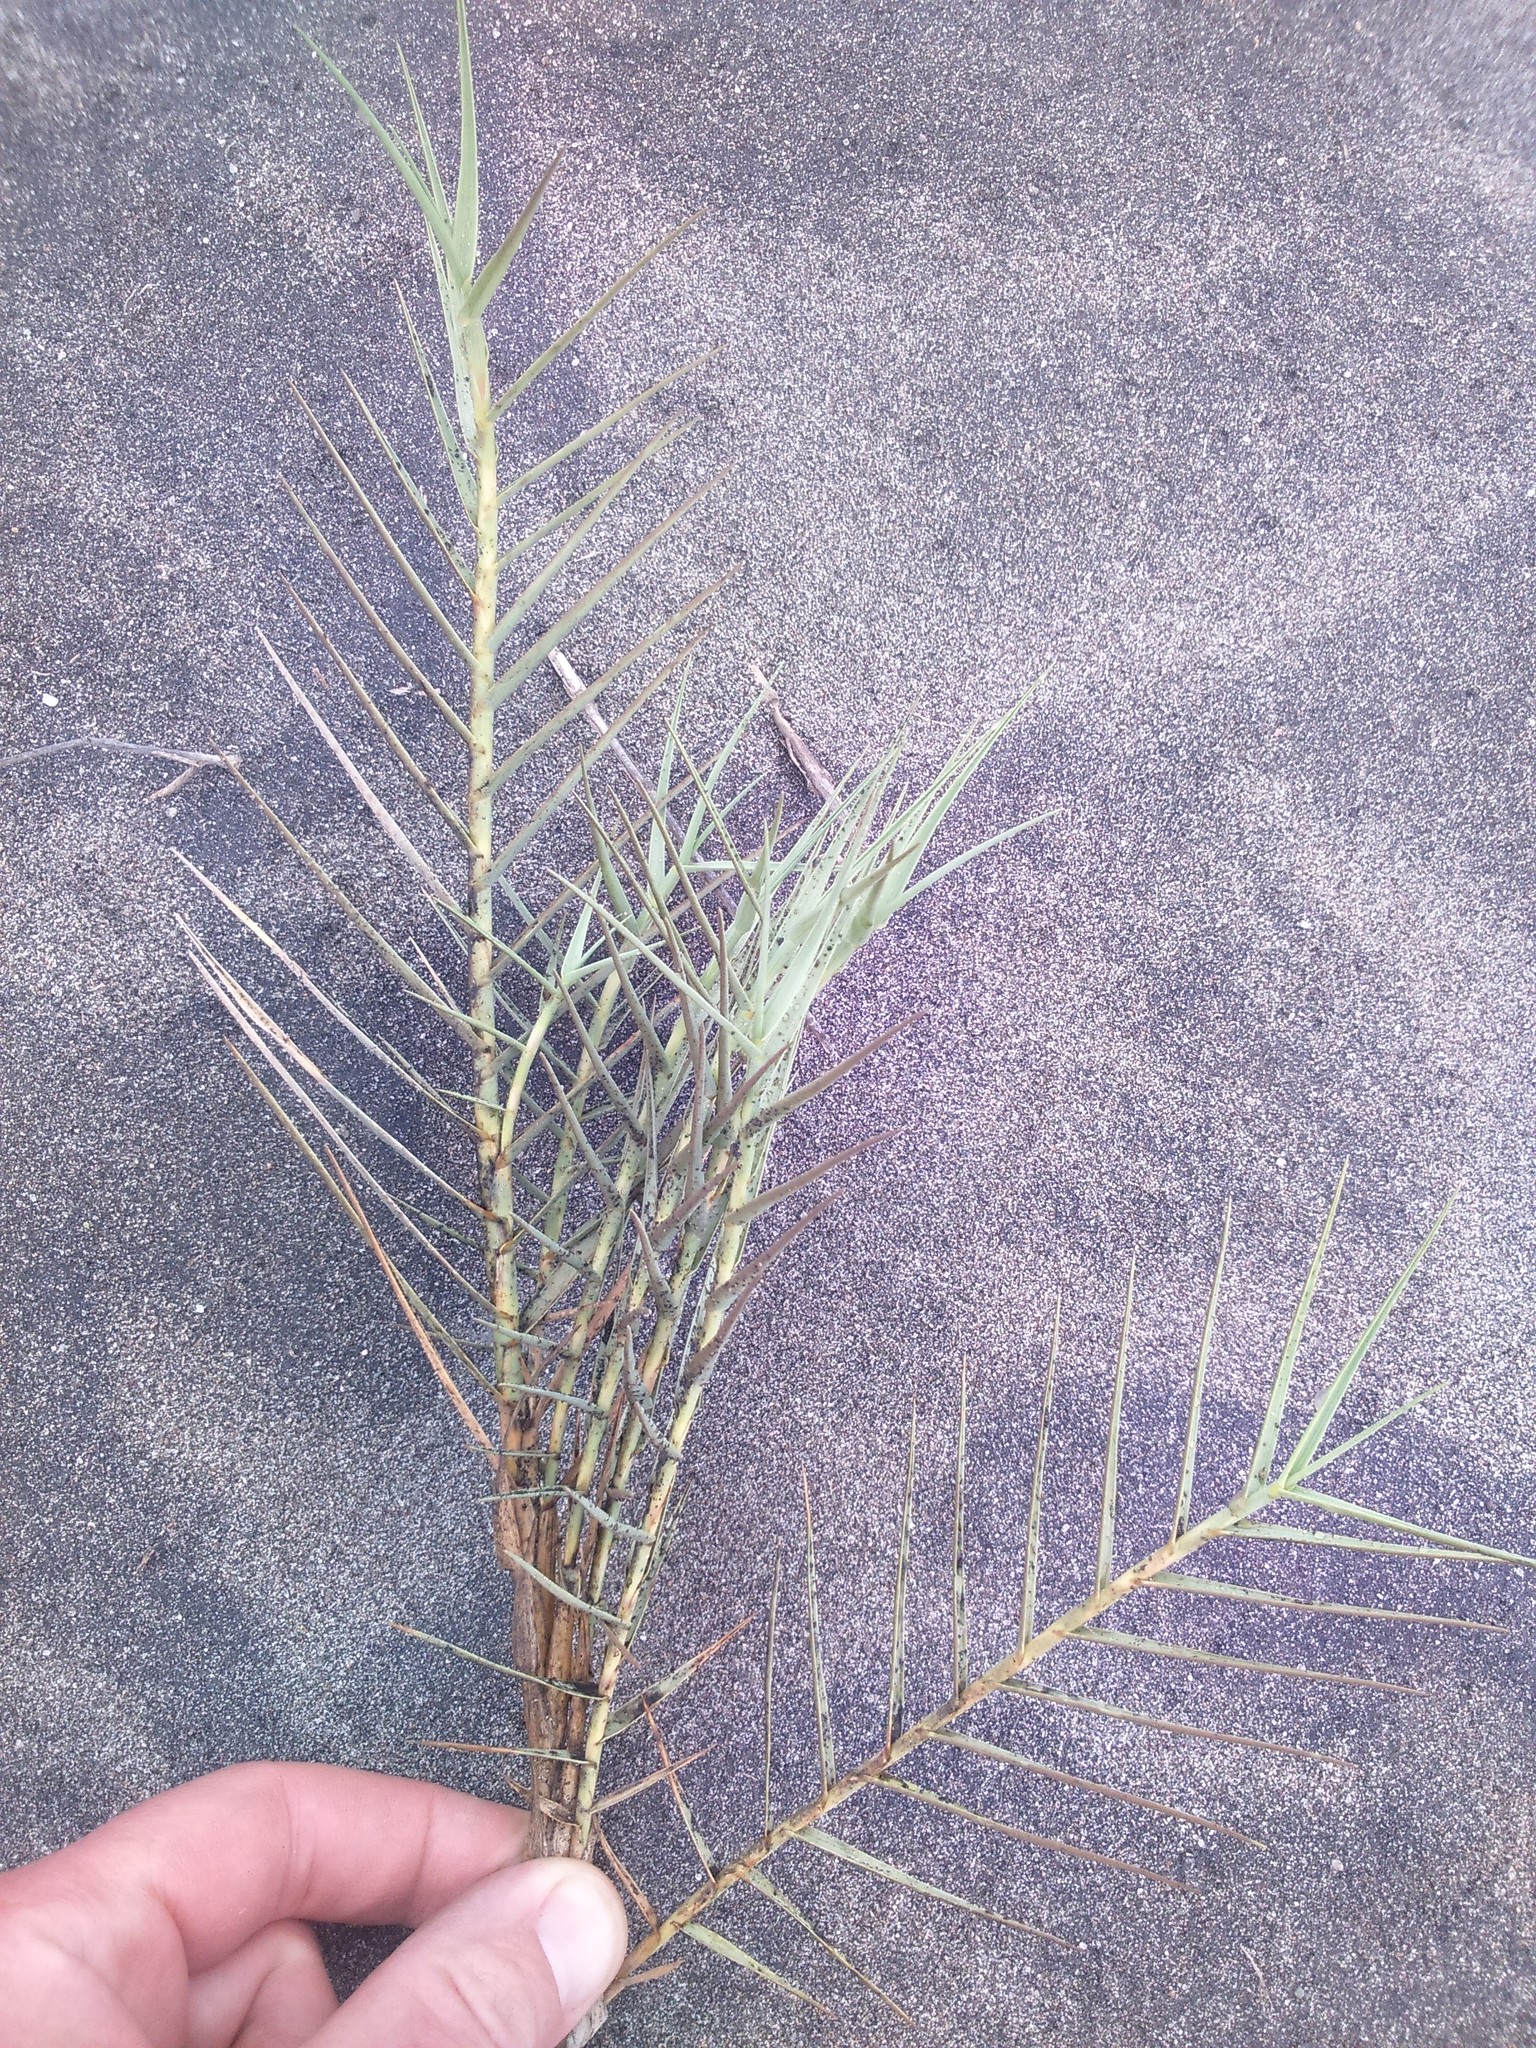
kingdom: Plantae
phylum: Tracheophyta
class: Liliopsida
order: Poales
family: Poaceae
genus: Distichlis
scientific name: Distichlis spicata
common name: Saltgrass
